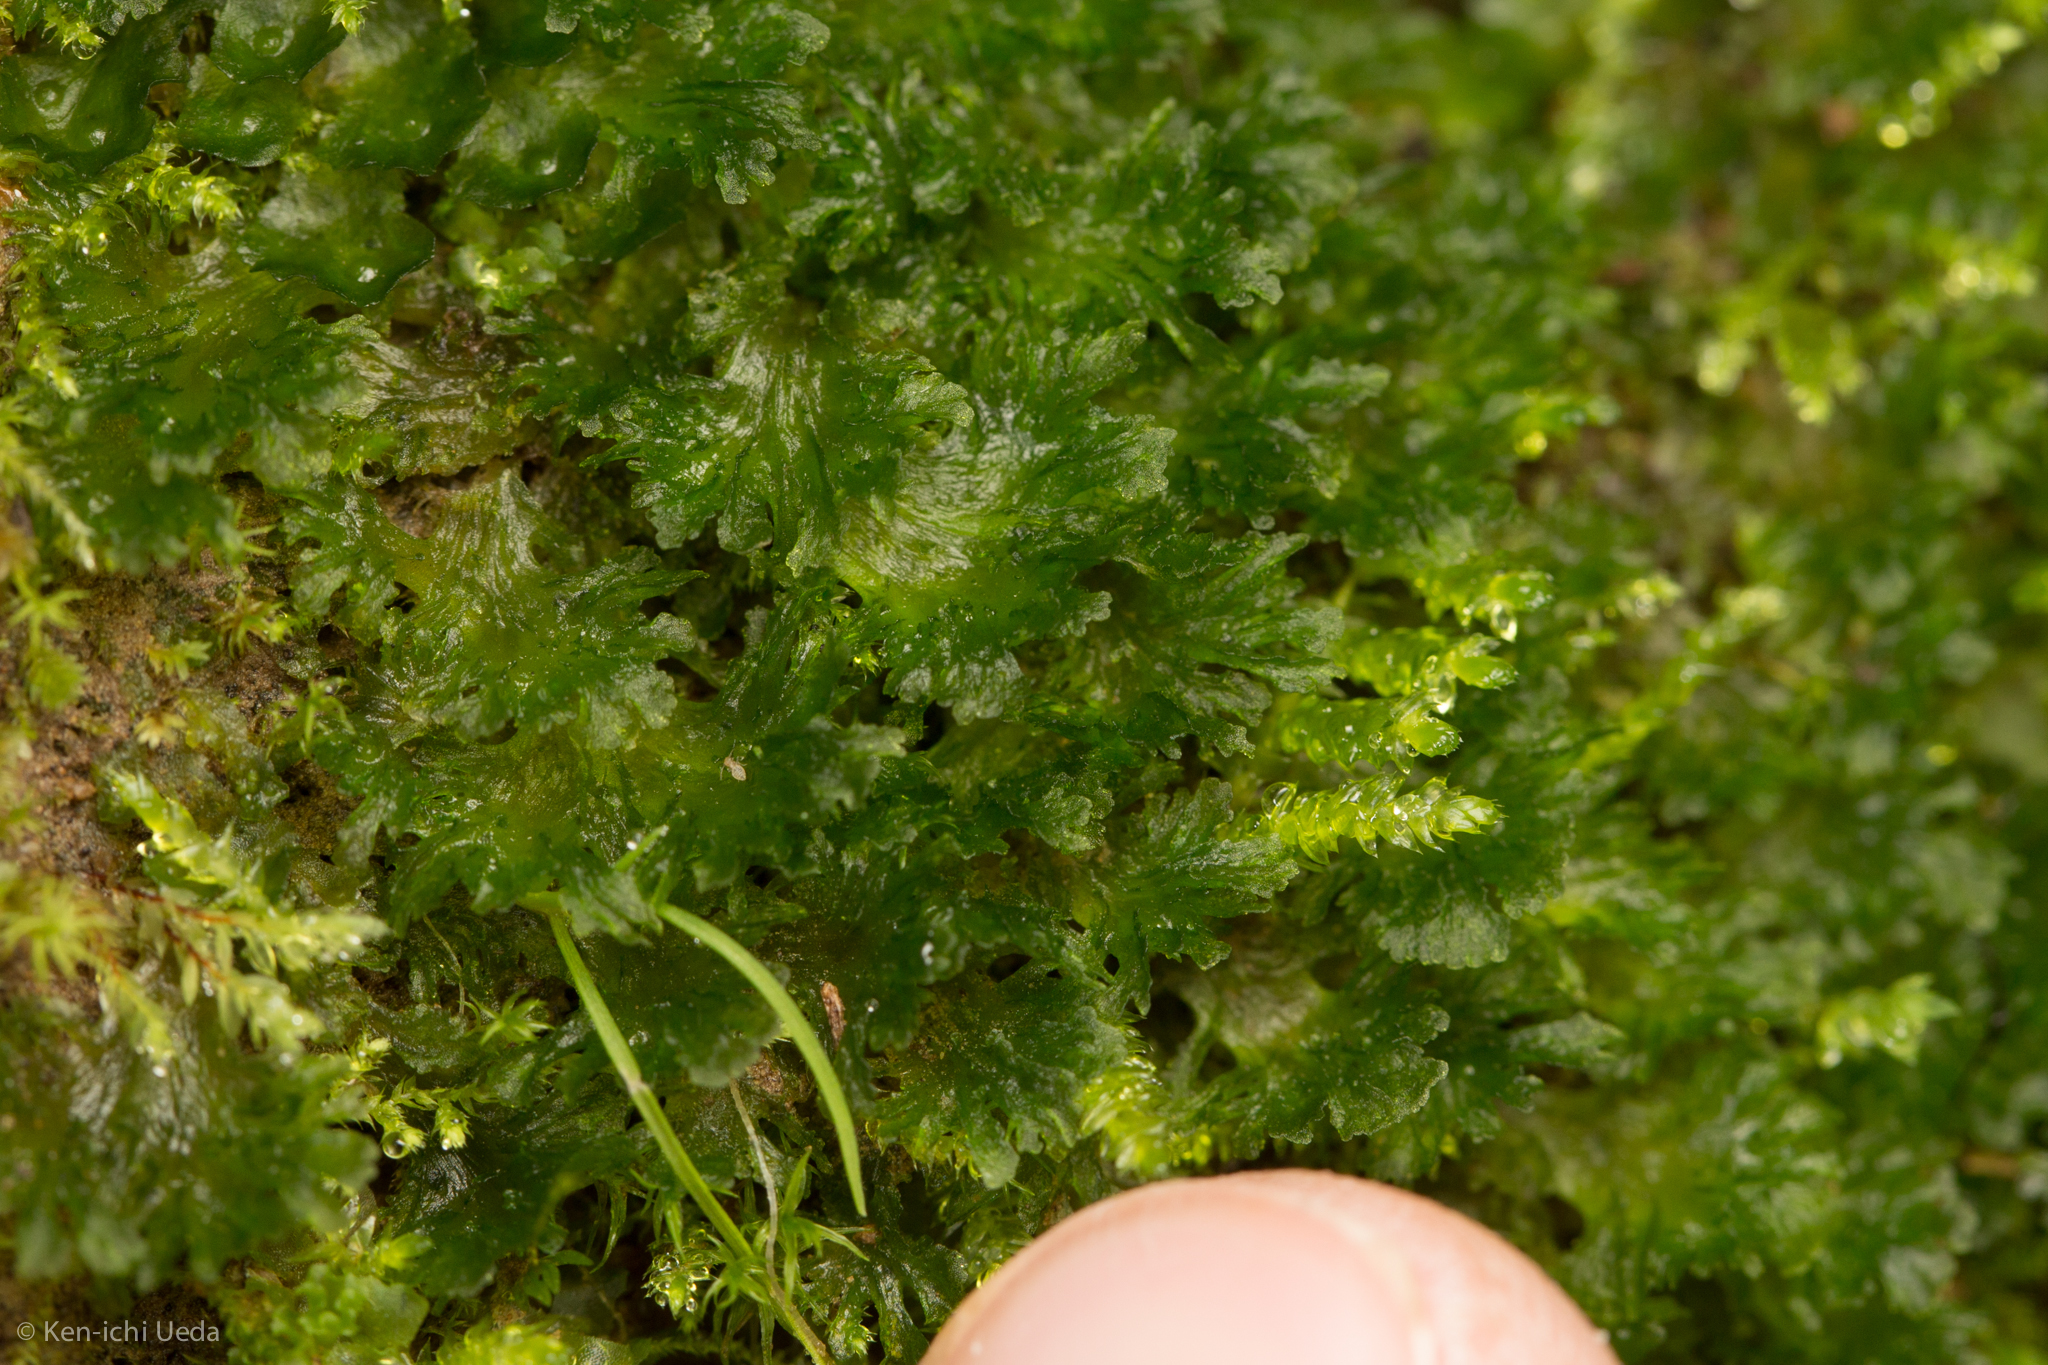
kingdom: Plantae
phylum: Anthocerotophyta
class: Anthocerotopsida
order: Anthocerotales
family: Anthocerotaceae
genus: Anthoceros
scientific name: Anthoceros fusiformis
